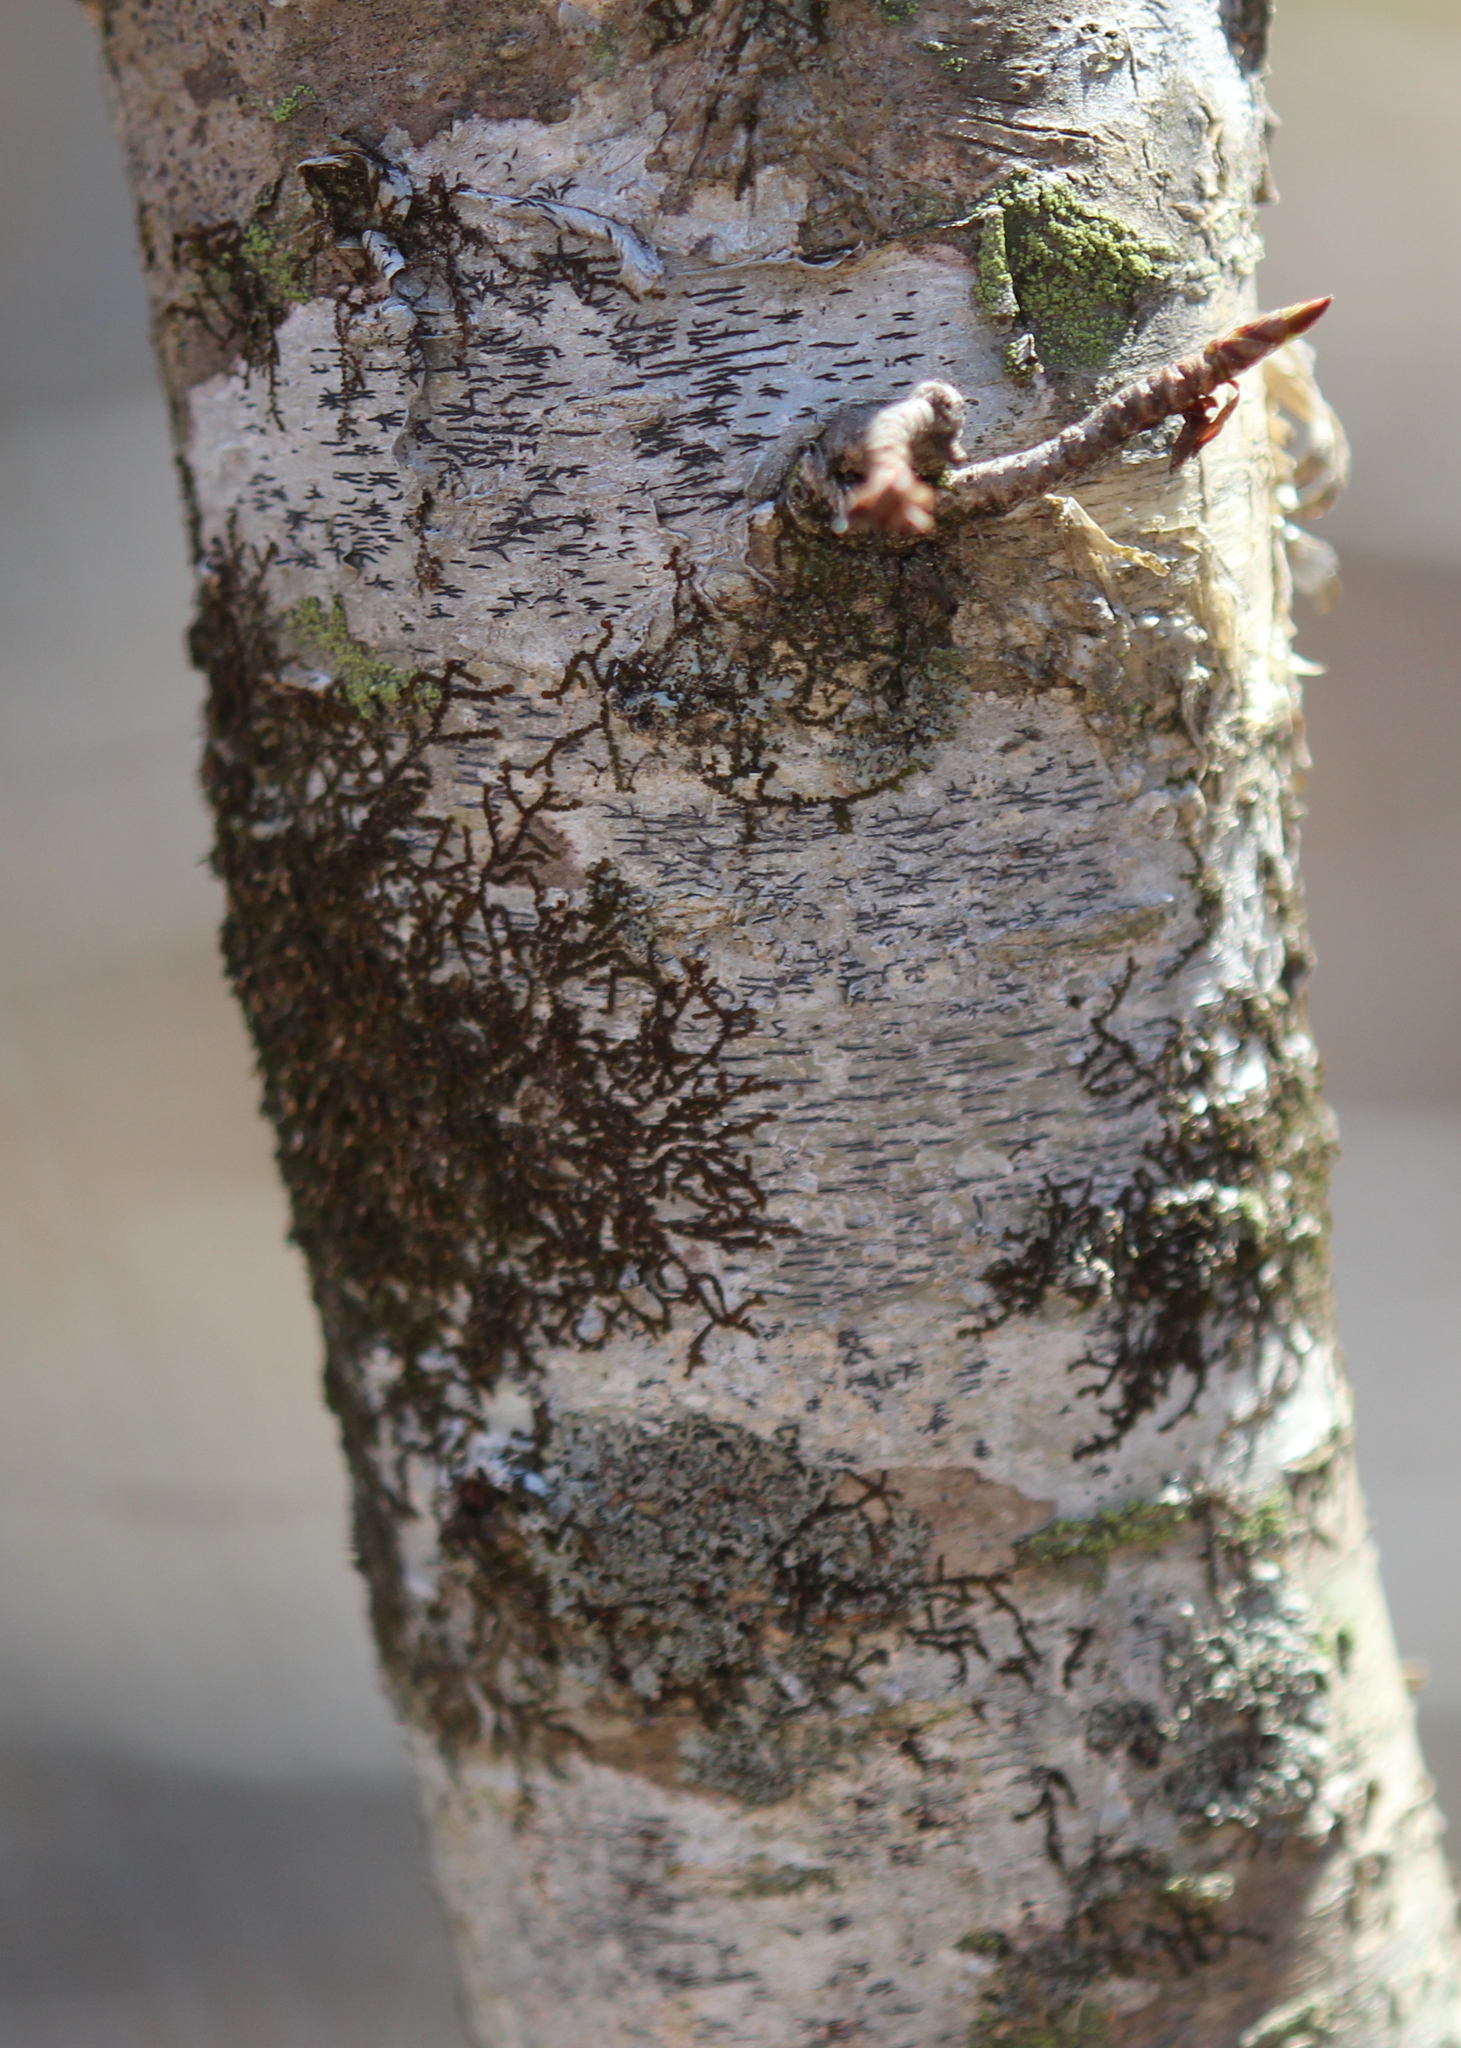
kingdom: Fungi
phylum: Ascomycota
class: Lecanoromycetes
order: Ostropales
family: Graphidaceae
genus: Graphis
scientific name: Graphis scripta
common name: Script lichen
